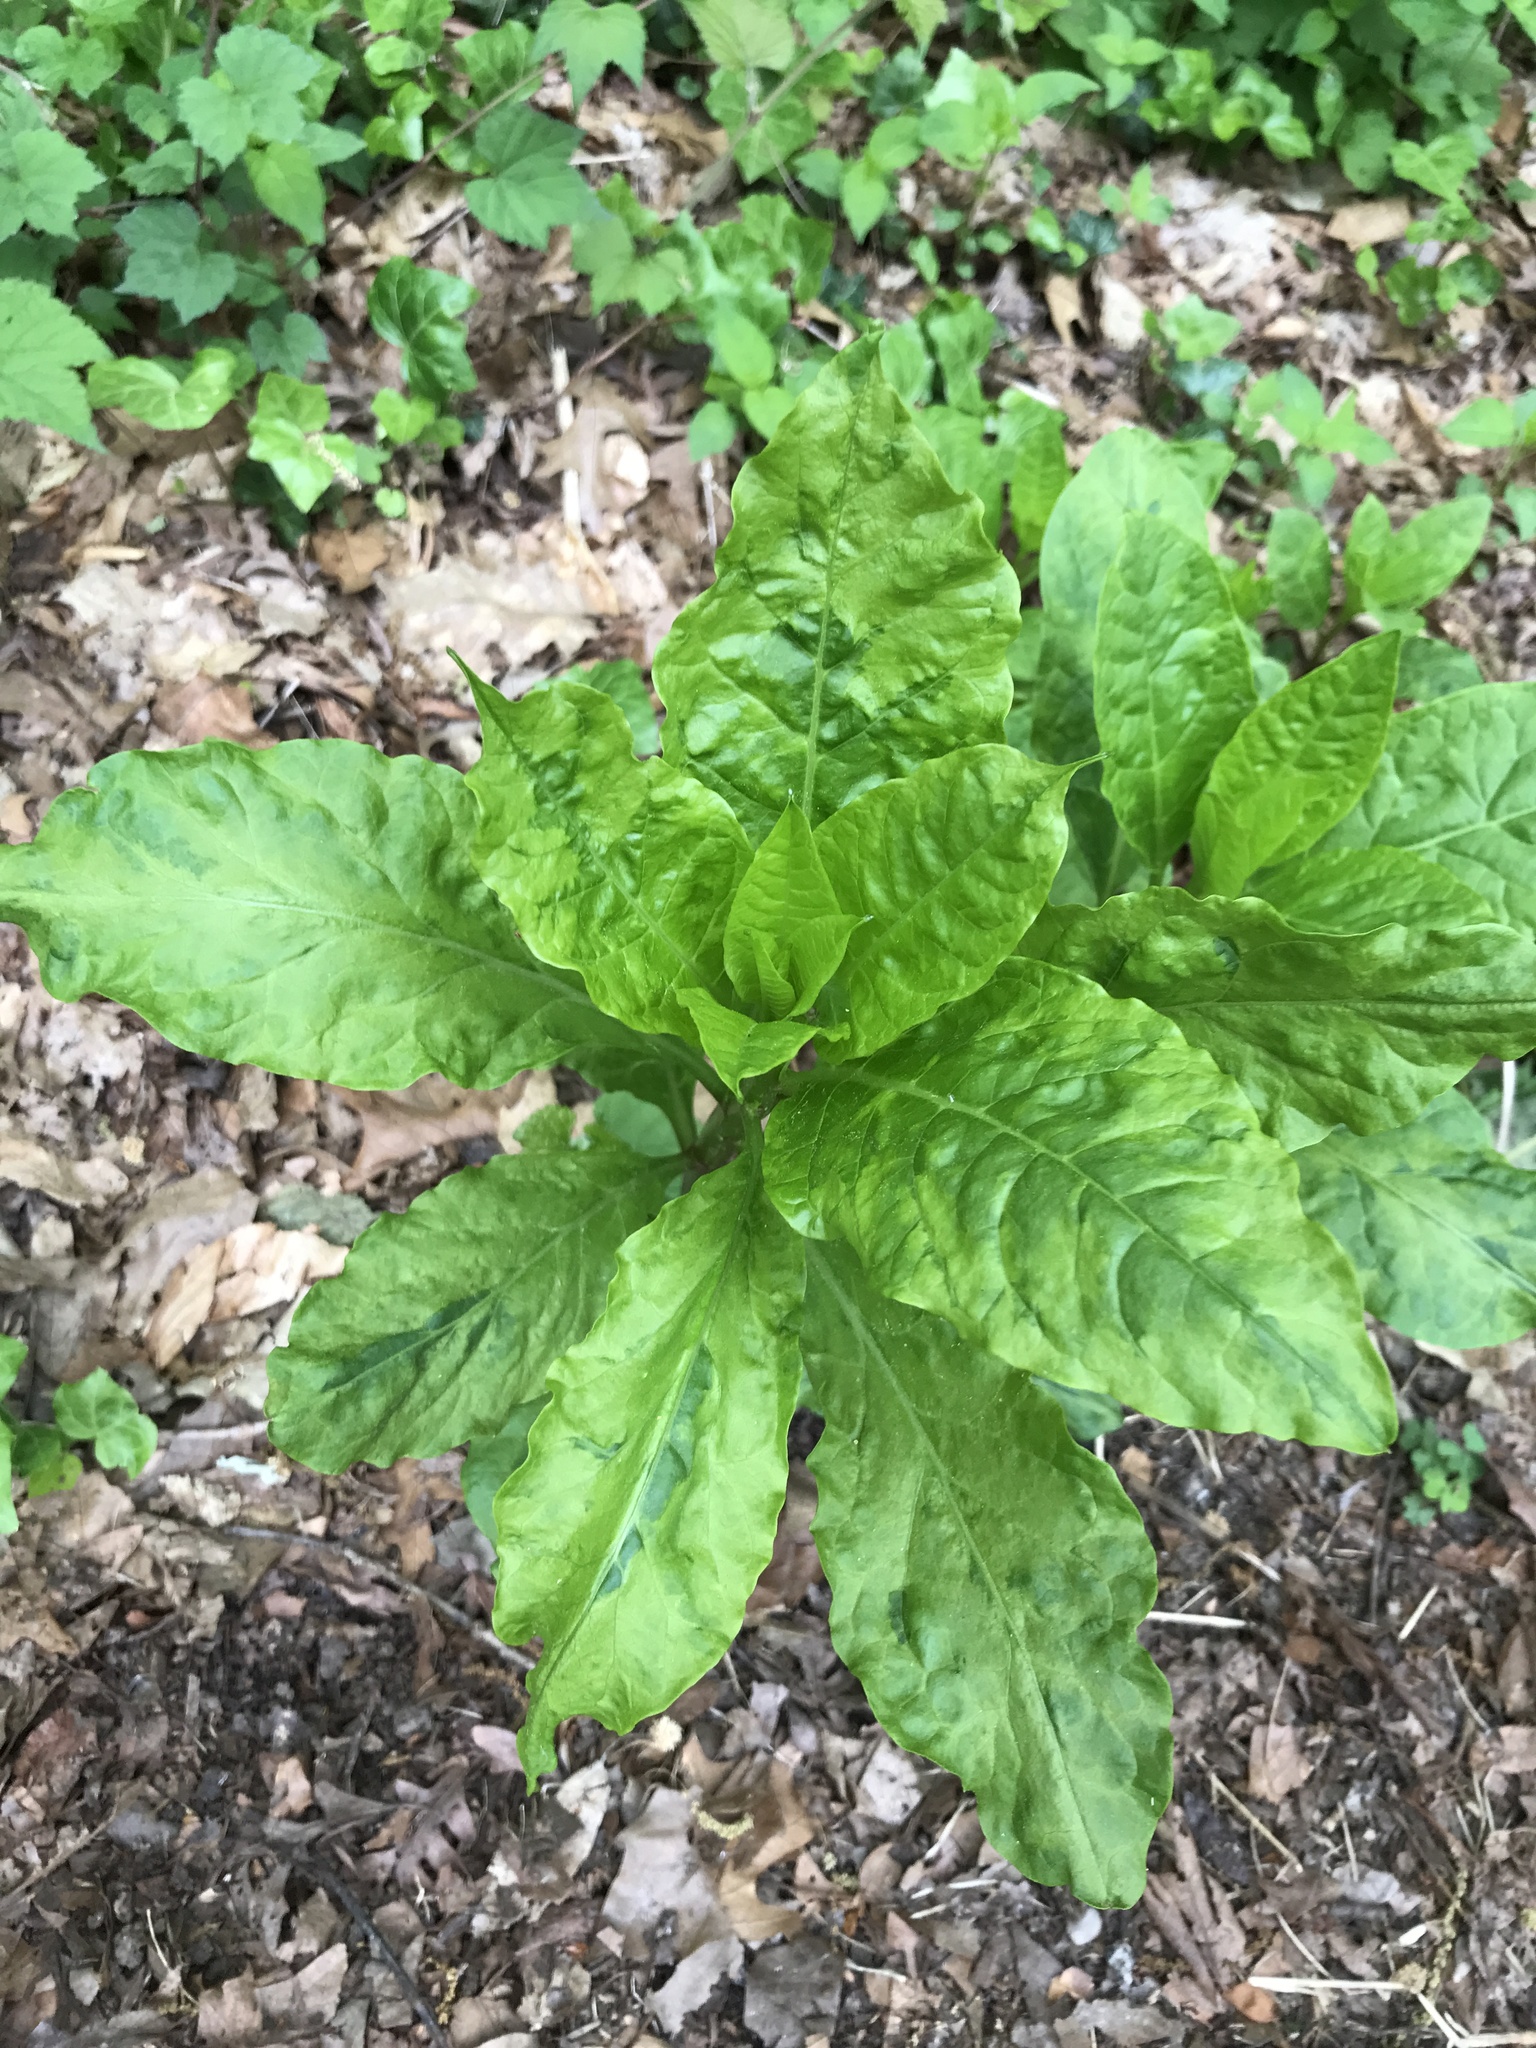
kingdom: Plantae
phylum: Tracheophyta
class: Magnoliopsida
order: Caryophyllales
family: Phytolaccaceae
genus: Phytolacca
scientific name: Phytolacca americana
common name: American pokeweed
